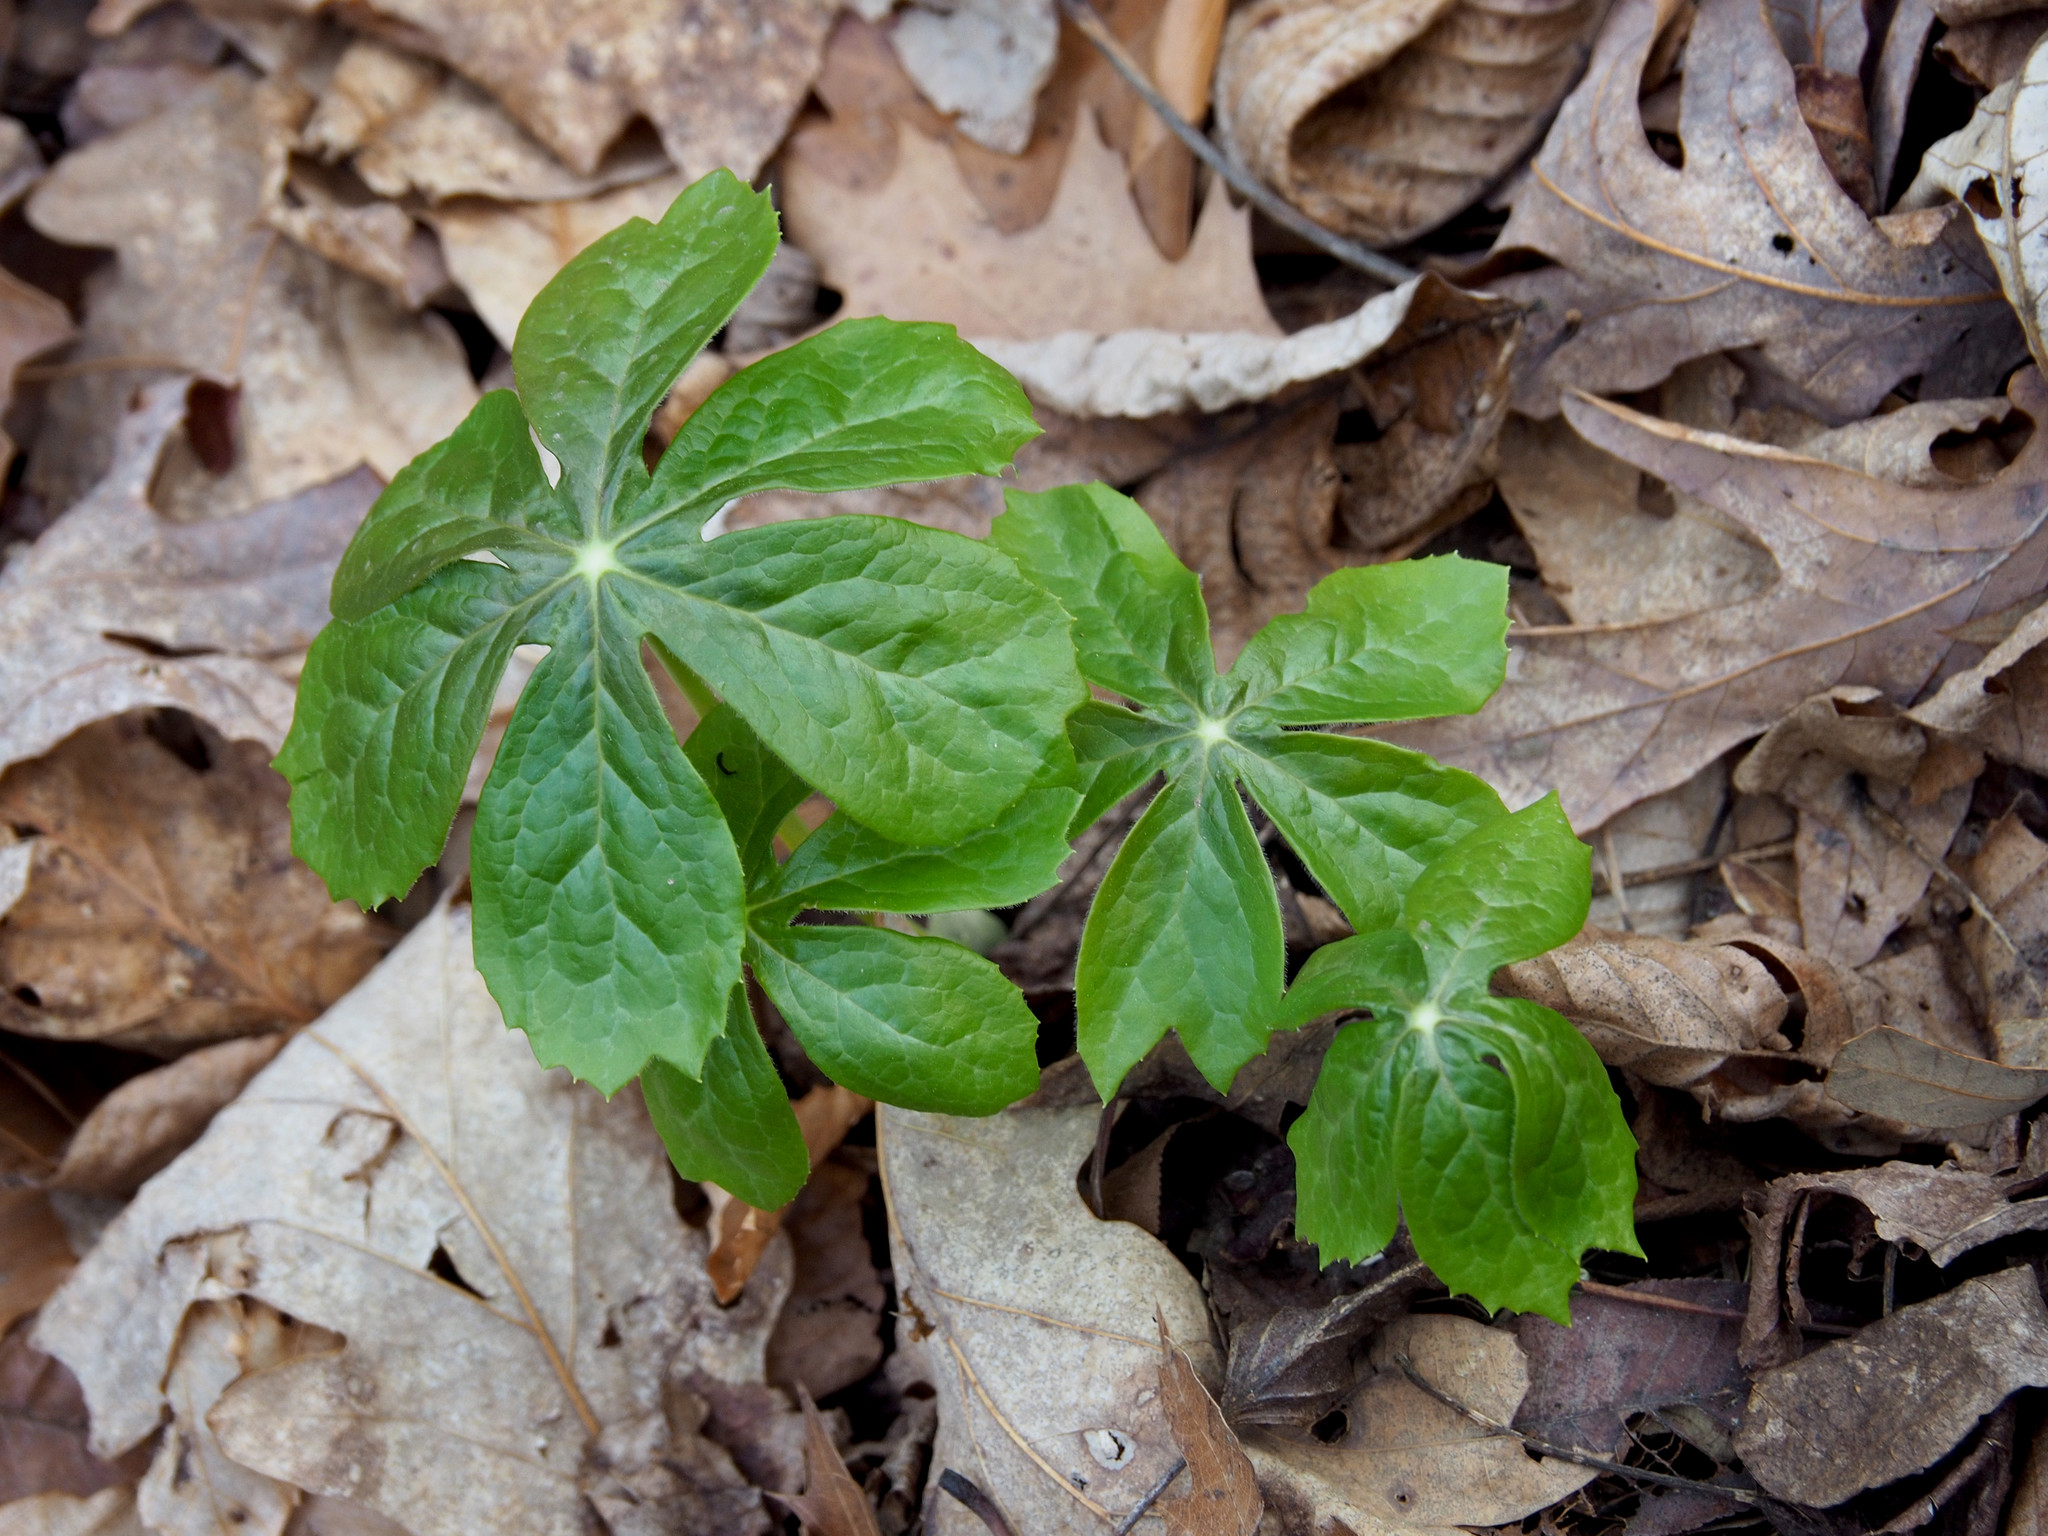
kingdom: Plantae
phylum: Tracheophyta
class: Magnoliopsida
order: Ranunculales
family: Berberidaceae
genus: Podophyllum
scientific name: Podophyllum peltatum
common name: Wild mandrake
